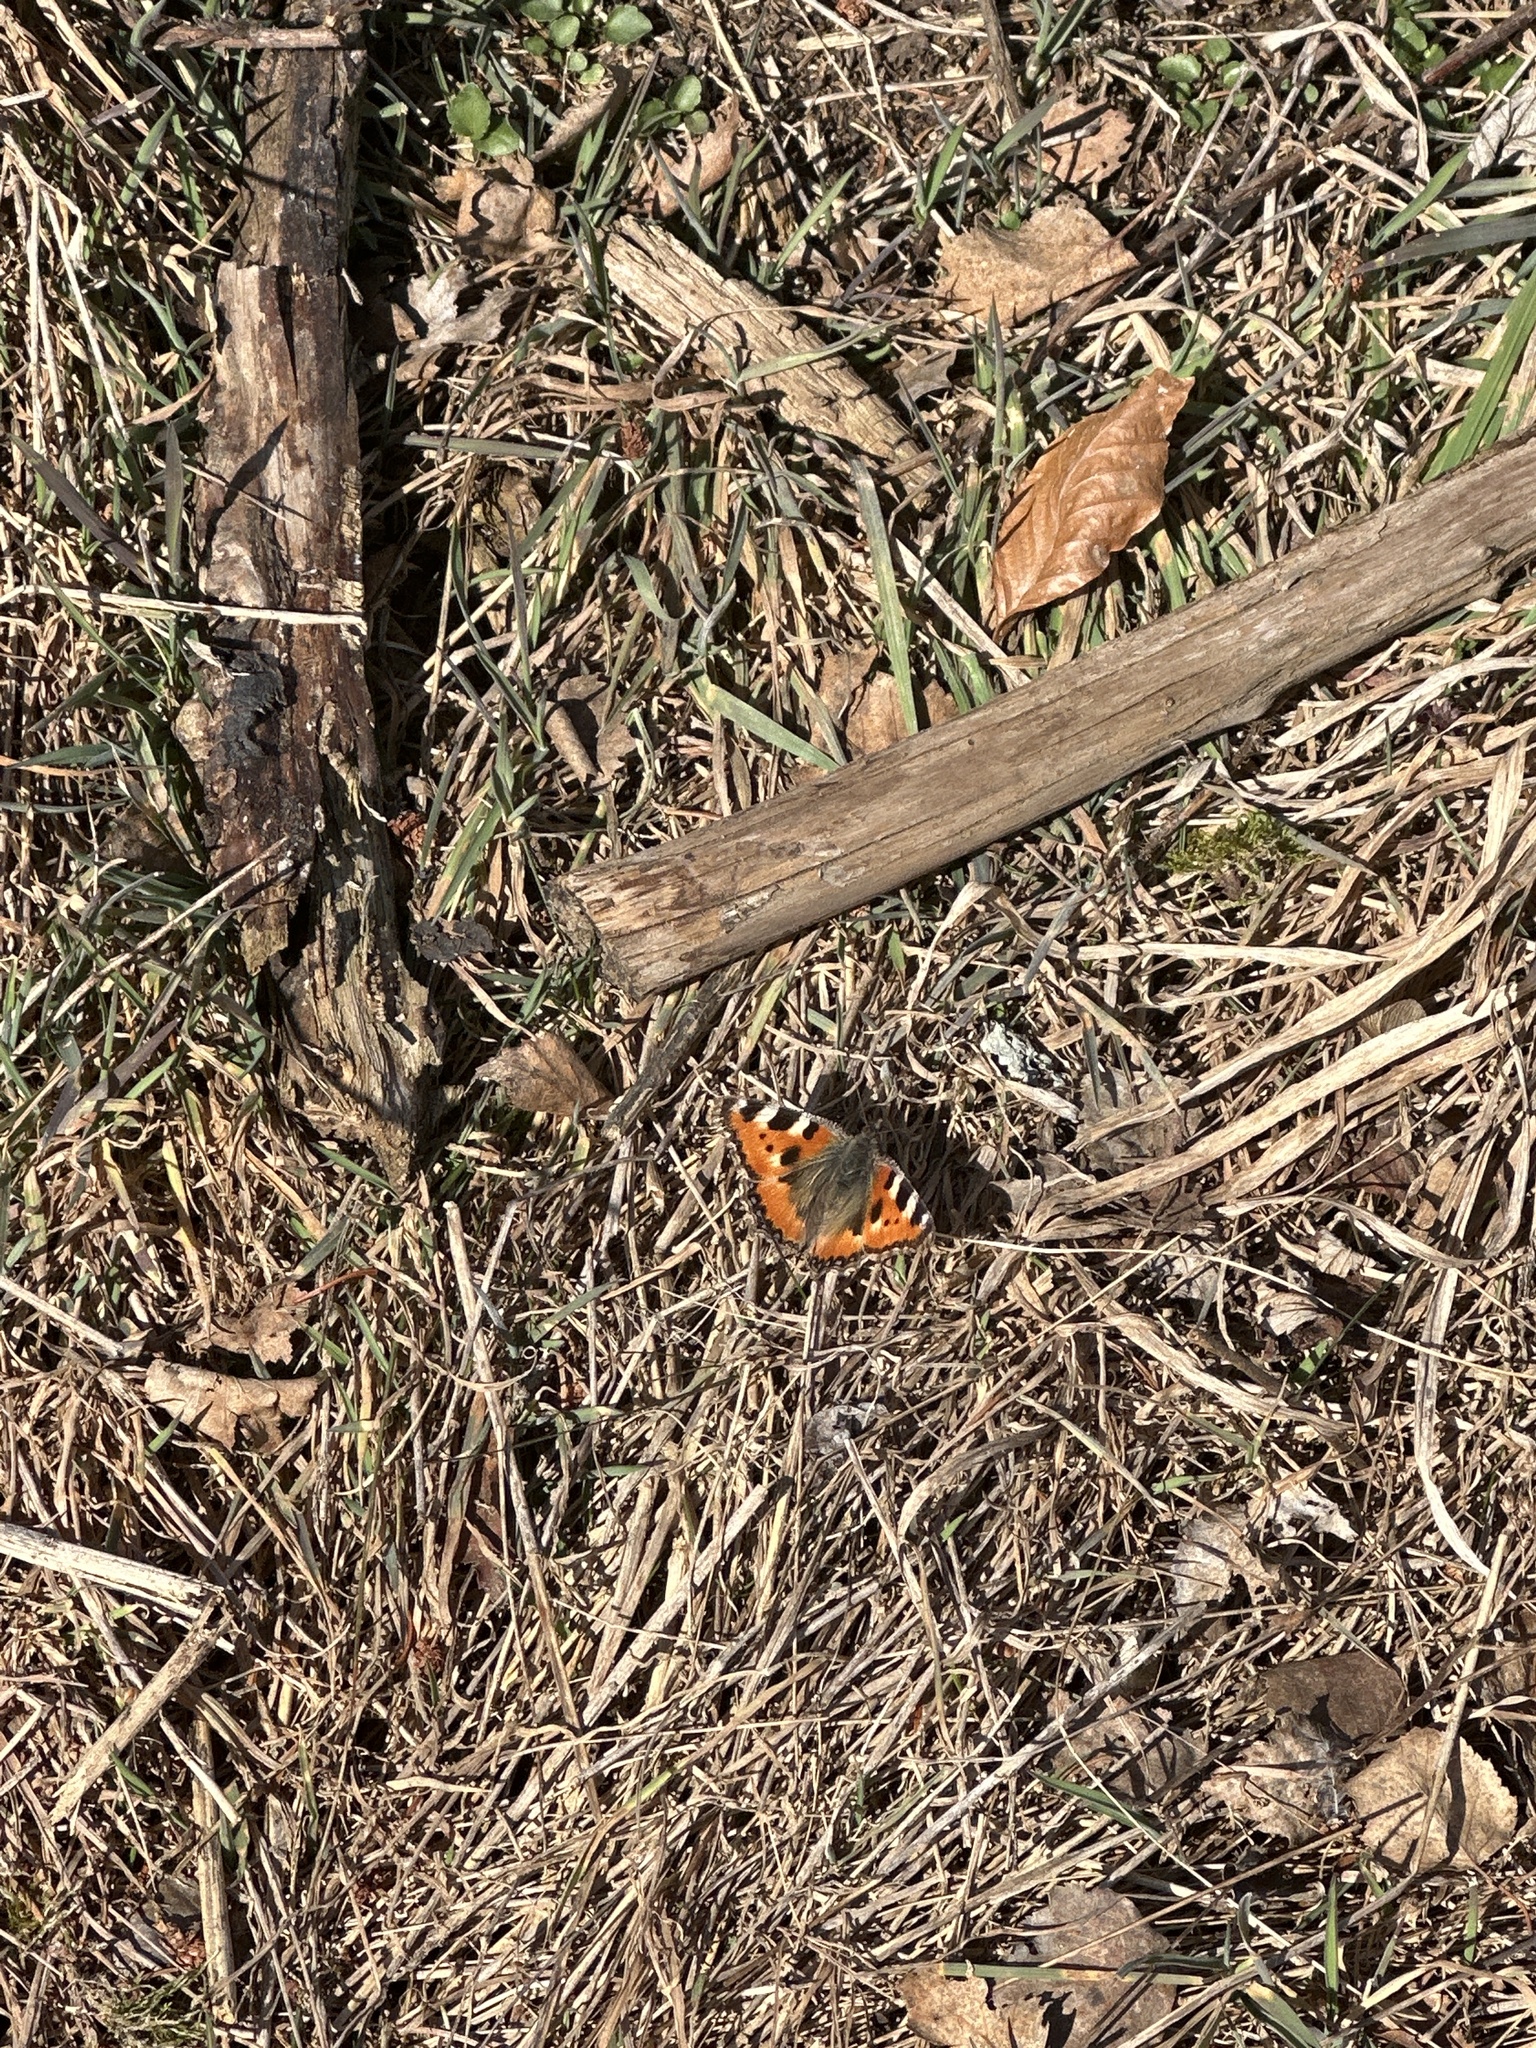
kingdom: Animalia
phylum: Arthropoda
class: Insecta
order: Lepidoptera
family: Nymphalidae
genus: Aglais
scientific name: Aglais urticae
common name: Small tortoiseshell
